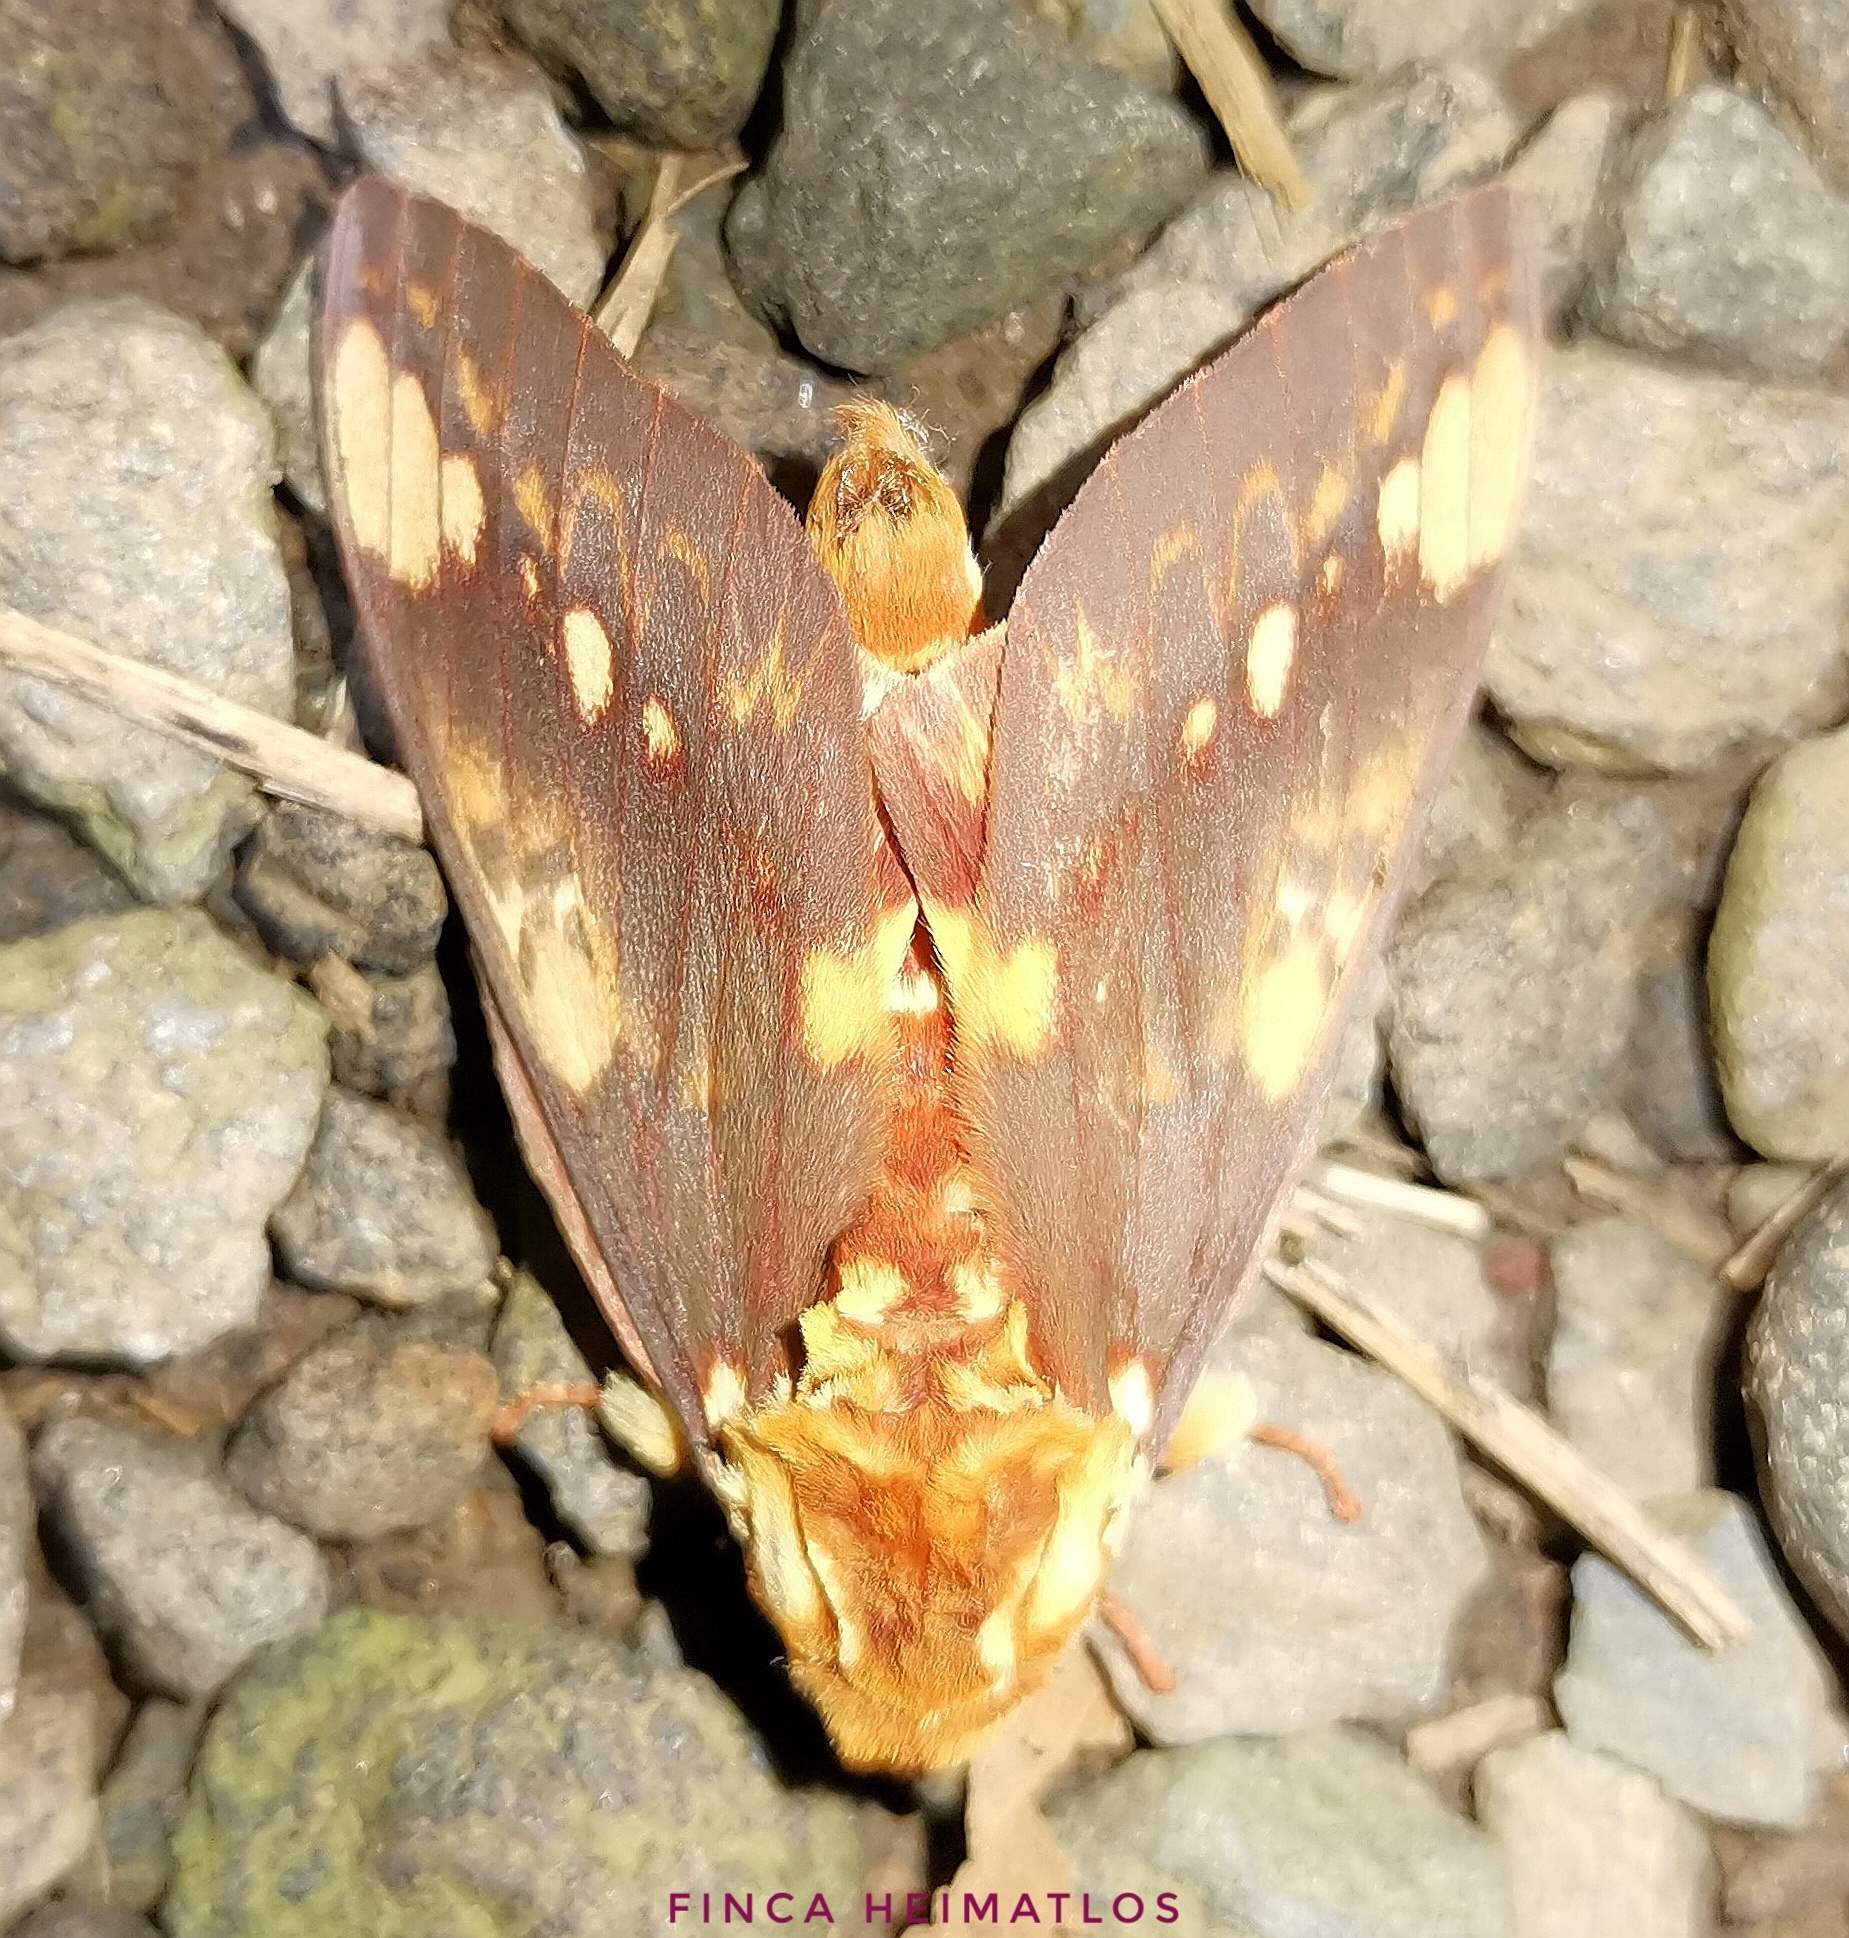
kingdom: Animalia
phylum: Arthropoda
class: Insecta
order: Lepidoptera
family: Saturniidae
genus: Citheronia
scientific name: Citheronia hamifera
